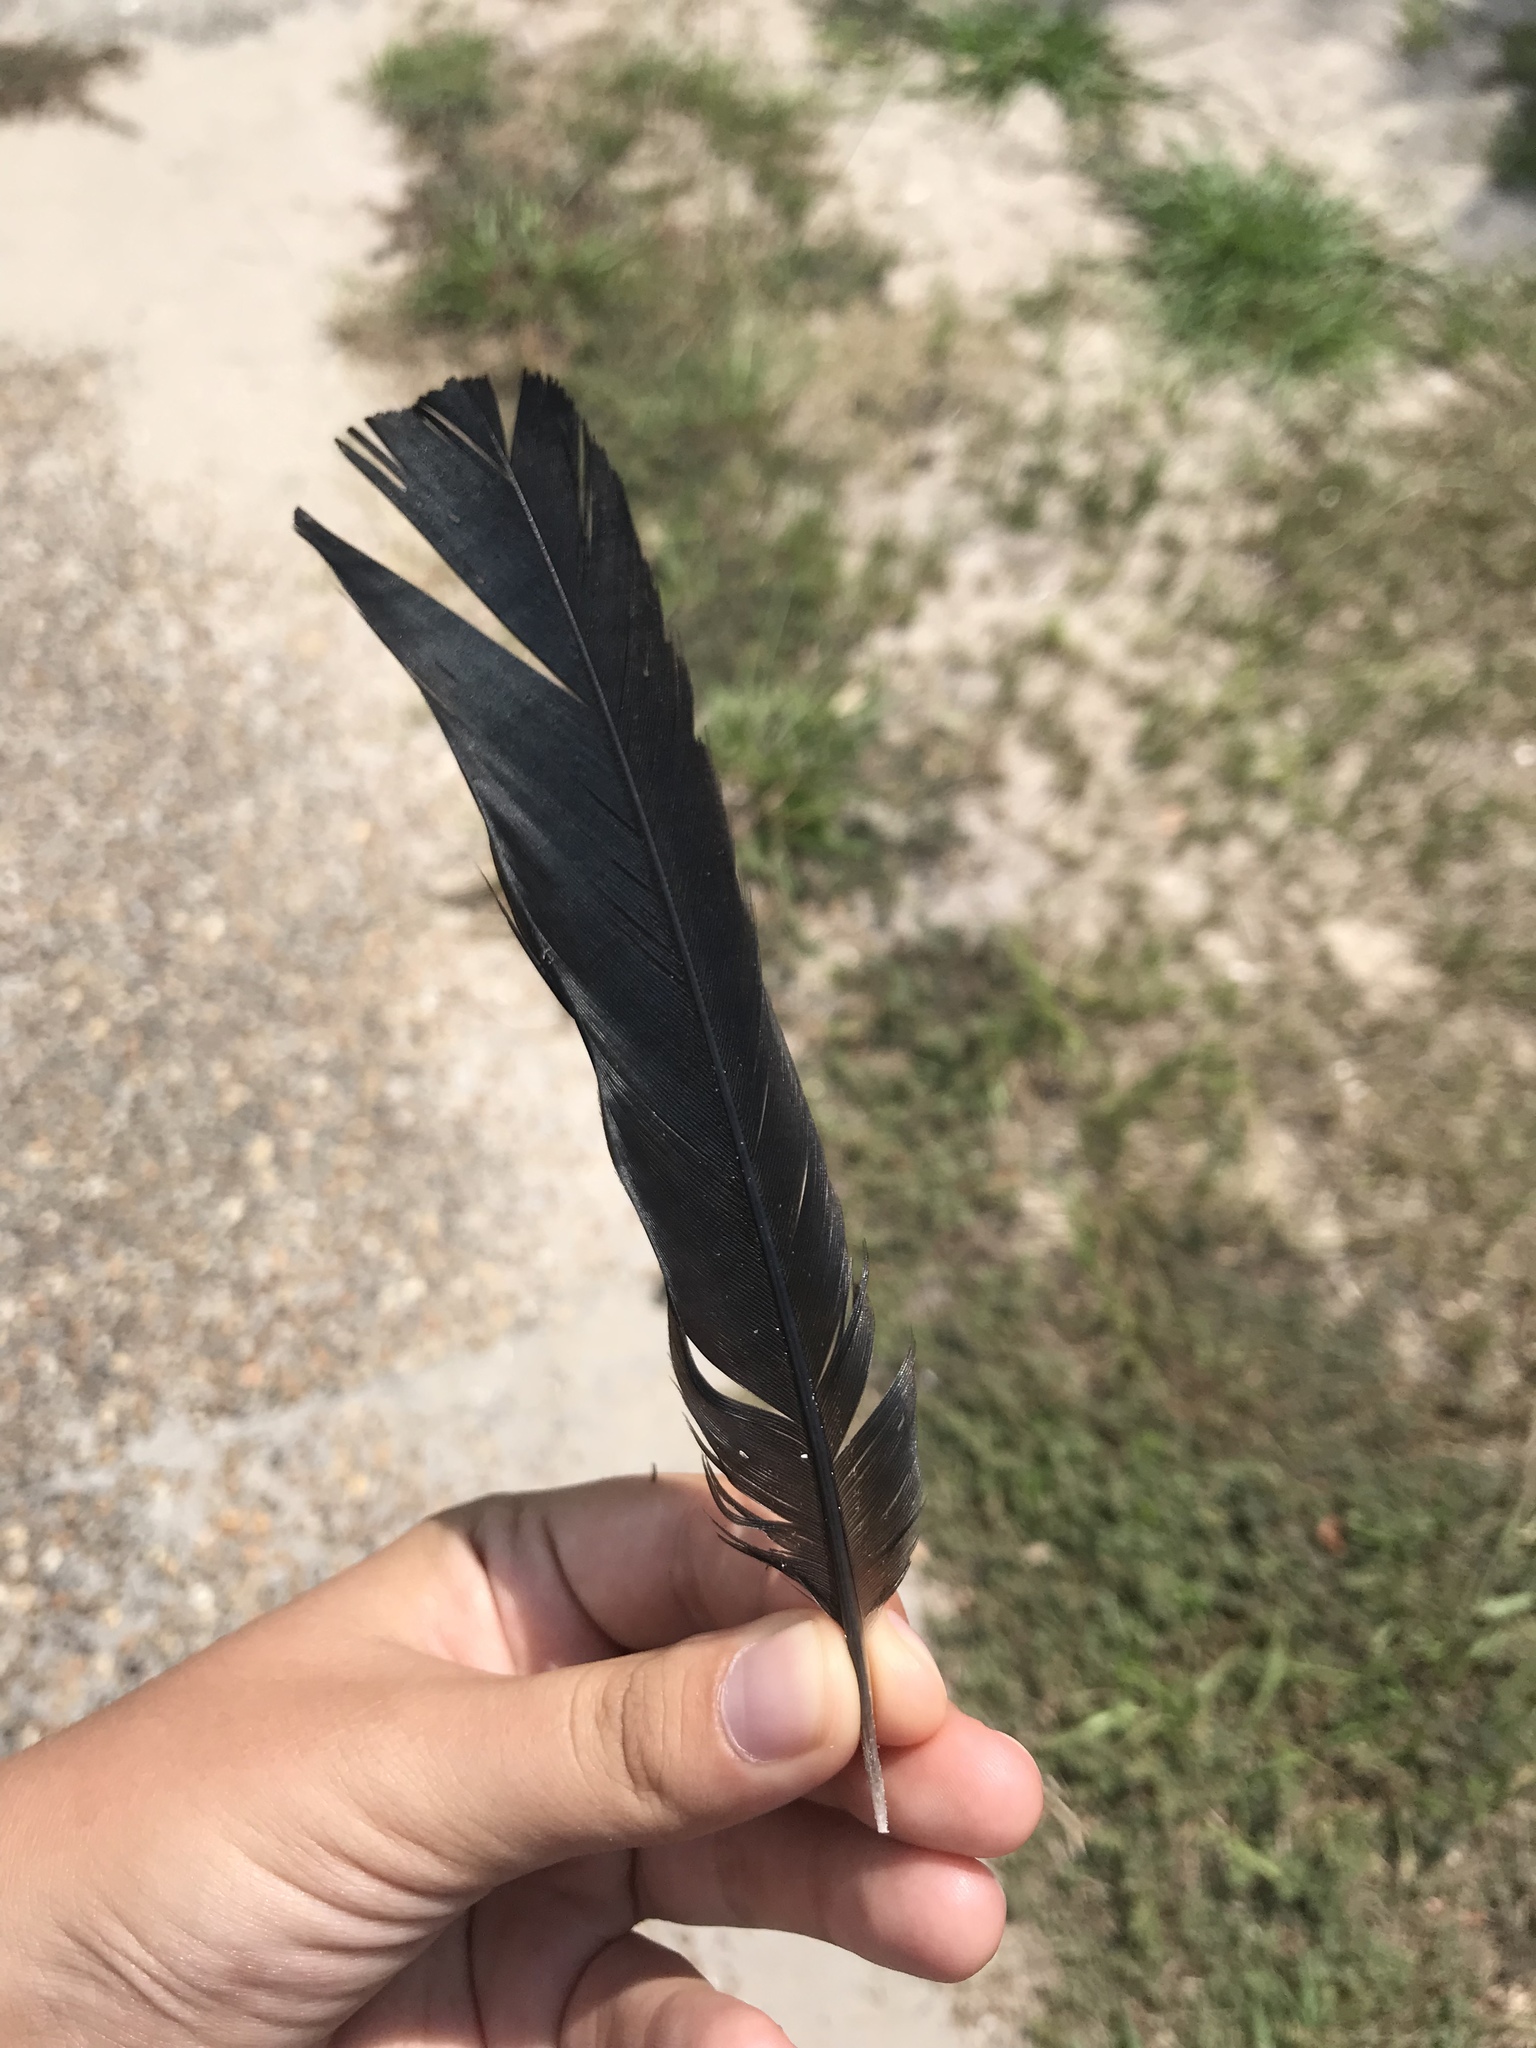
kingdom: Animalia
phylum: Chordata
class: Aves
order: Passeriformes
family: Icteridae
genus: Quiscalus
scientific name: Quiscalus major
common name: Boat-tailed grackle
